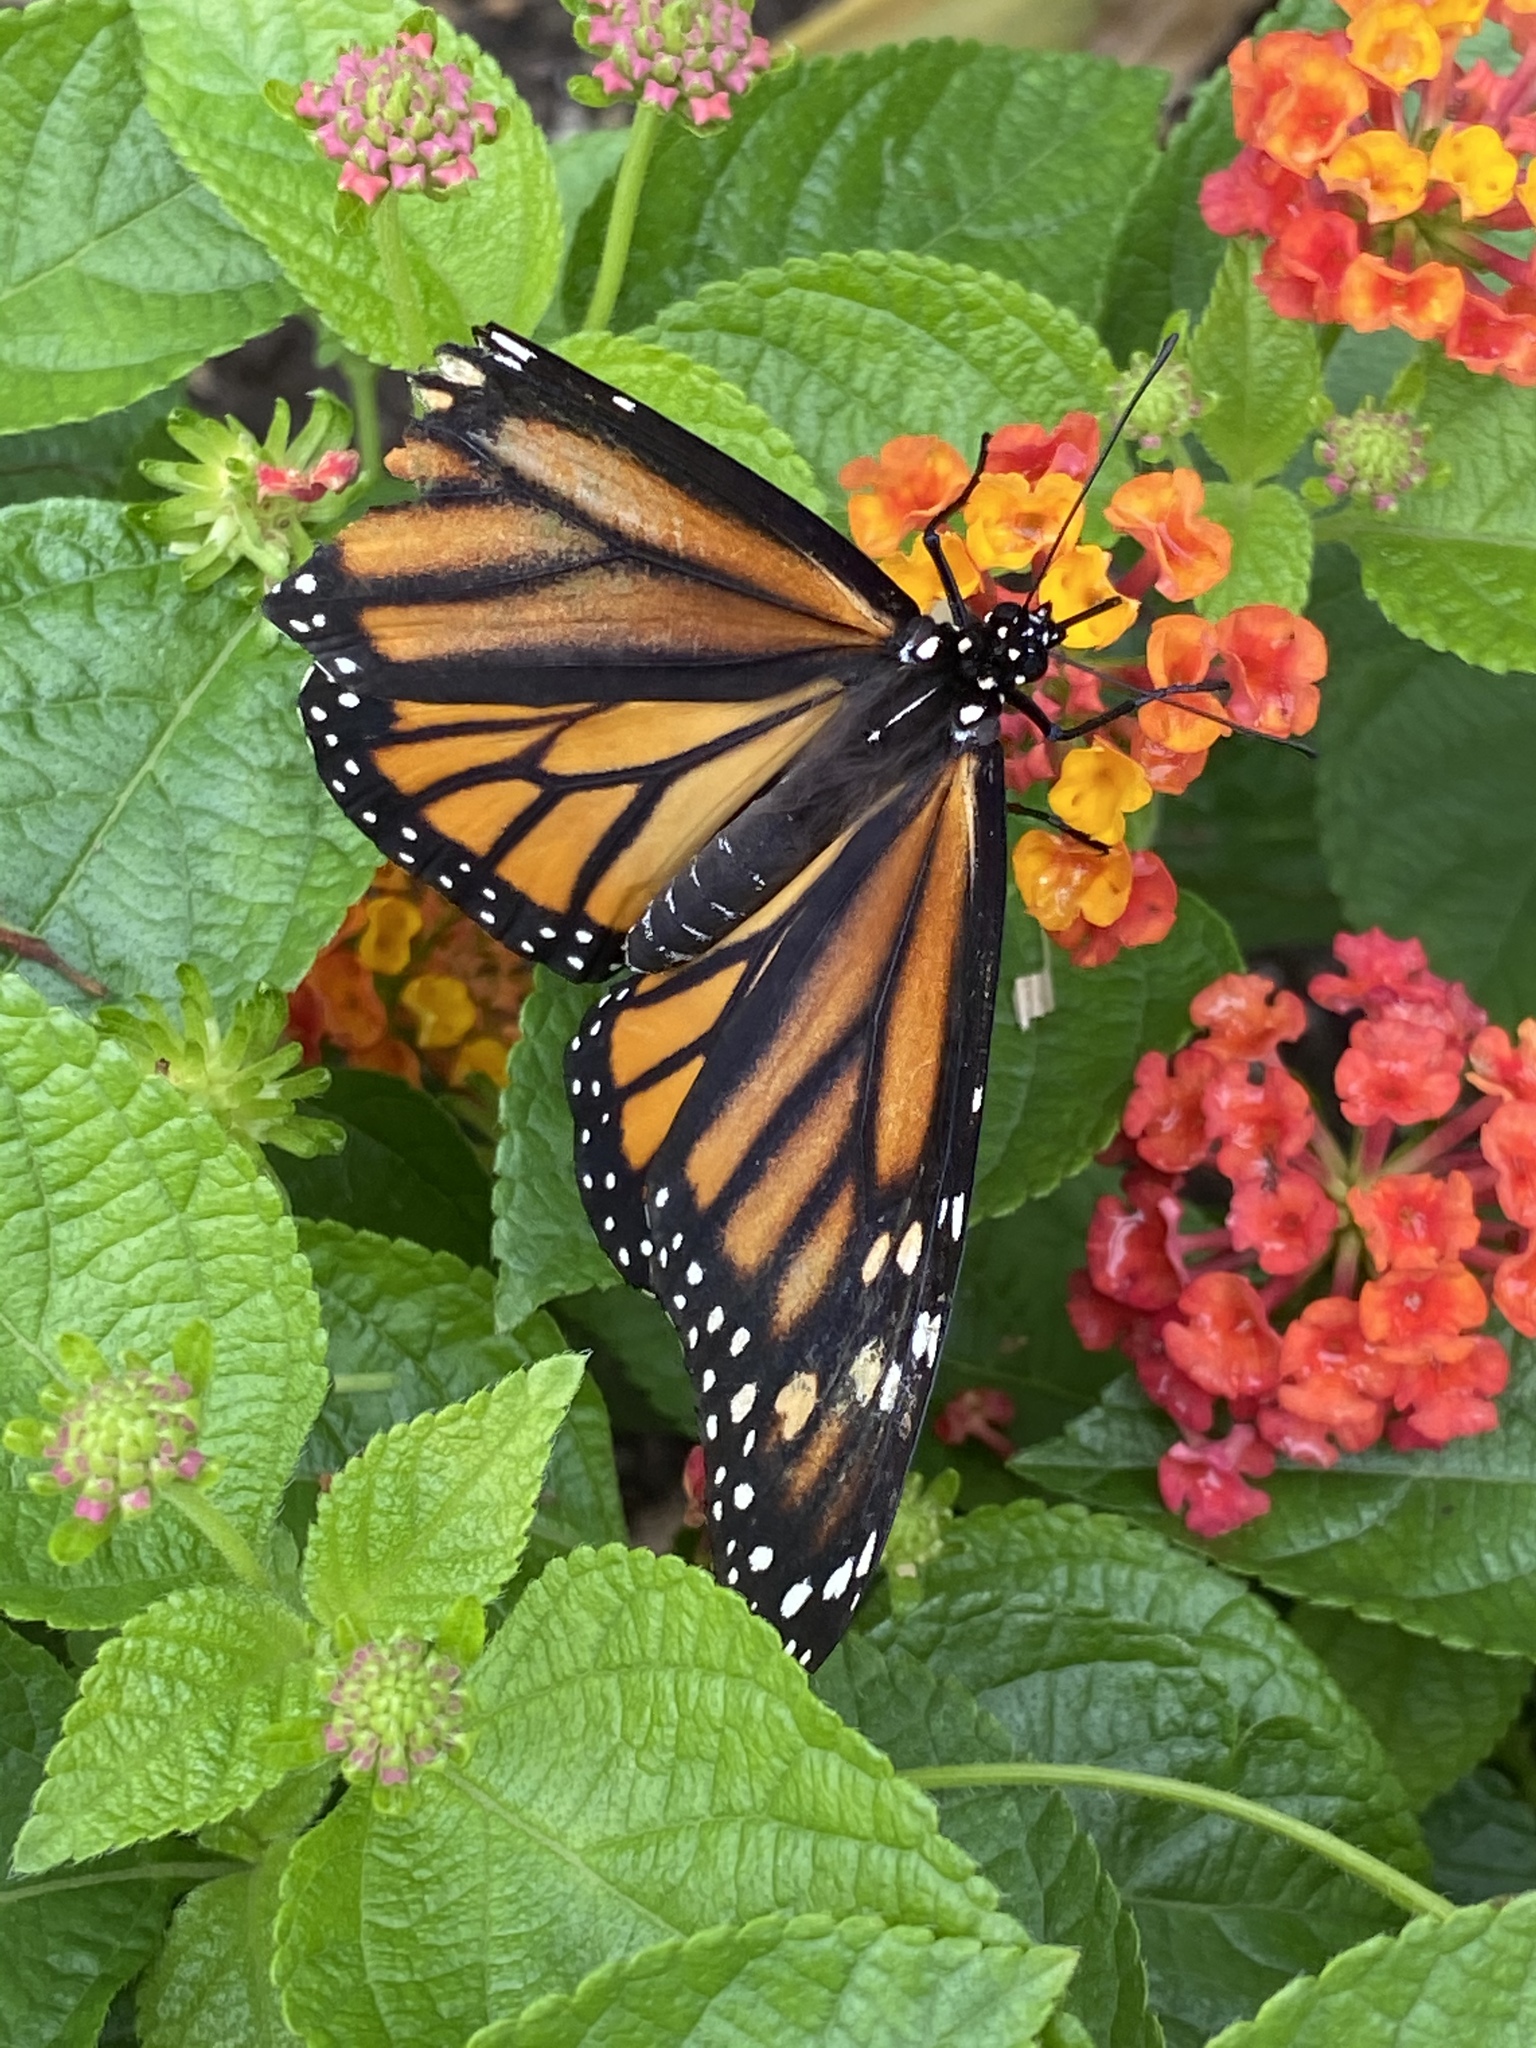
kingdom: Animalia
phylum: Arthropoda
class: Insecta
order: Lepidoptera
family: Nymphalidae
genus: Danaus
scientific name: Danaus plexippus
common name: Monarch
